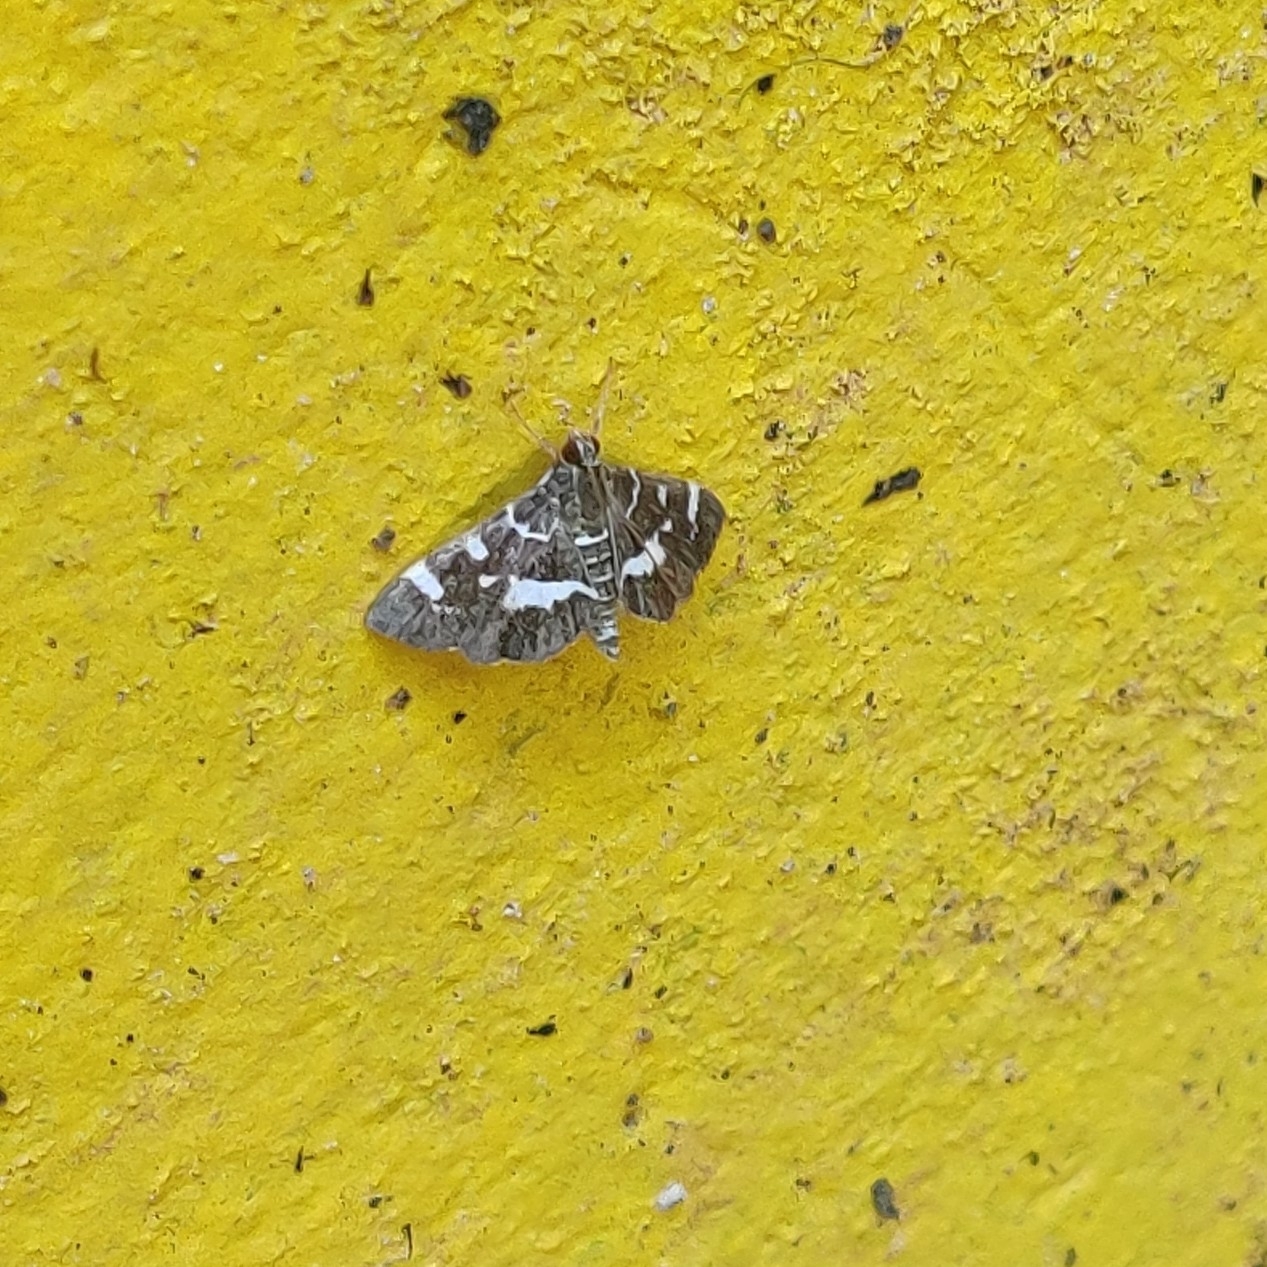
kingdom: Animalia
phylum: Arthropoda
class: Insecta
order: Lepidoptera
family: Crambidae
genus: Hymenia
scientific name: Hymenia perspectalis
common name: Spotted beet webworm
